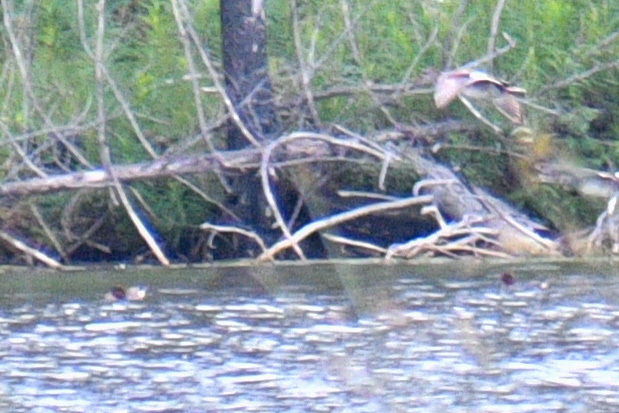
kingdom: Animalia
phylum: Chordata
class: Aves
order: Anseriformes
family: Anatidae
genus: Anas
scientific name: Anas crecca
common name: Eurasian teal
